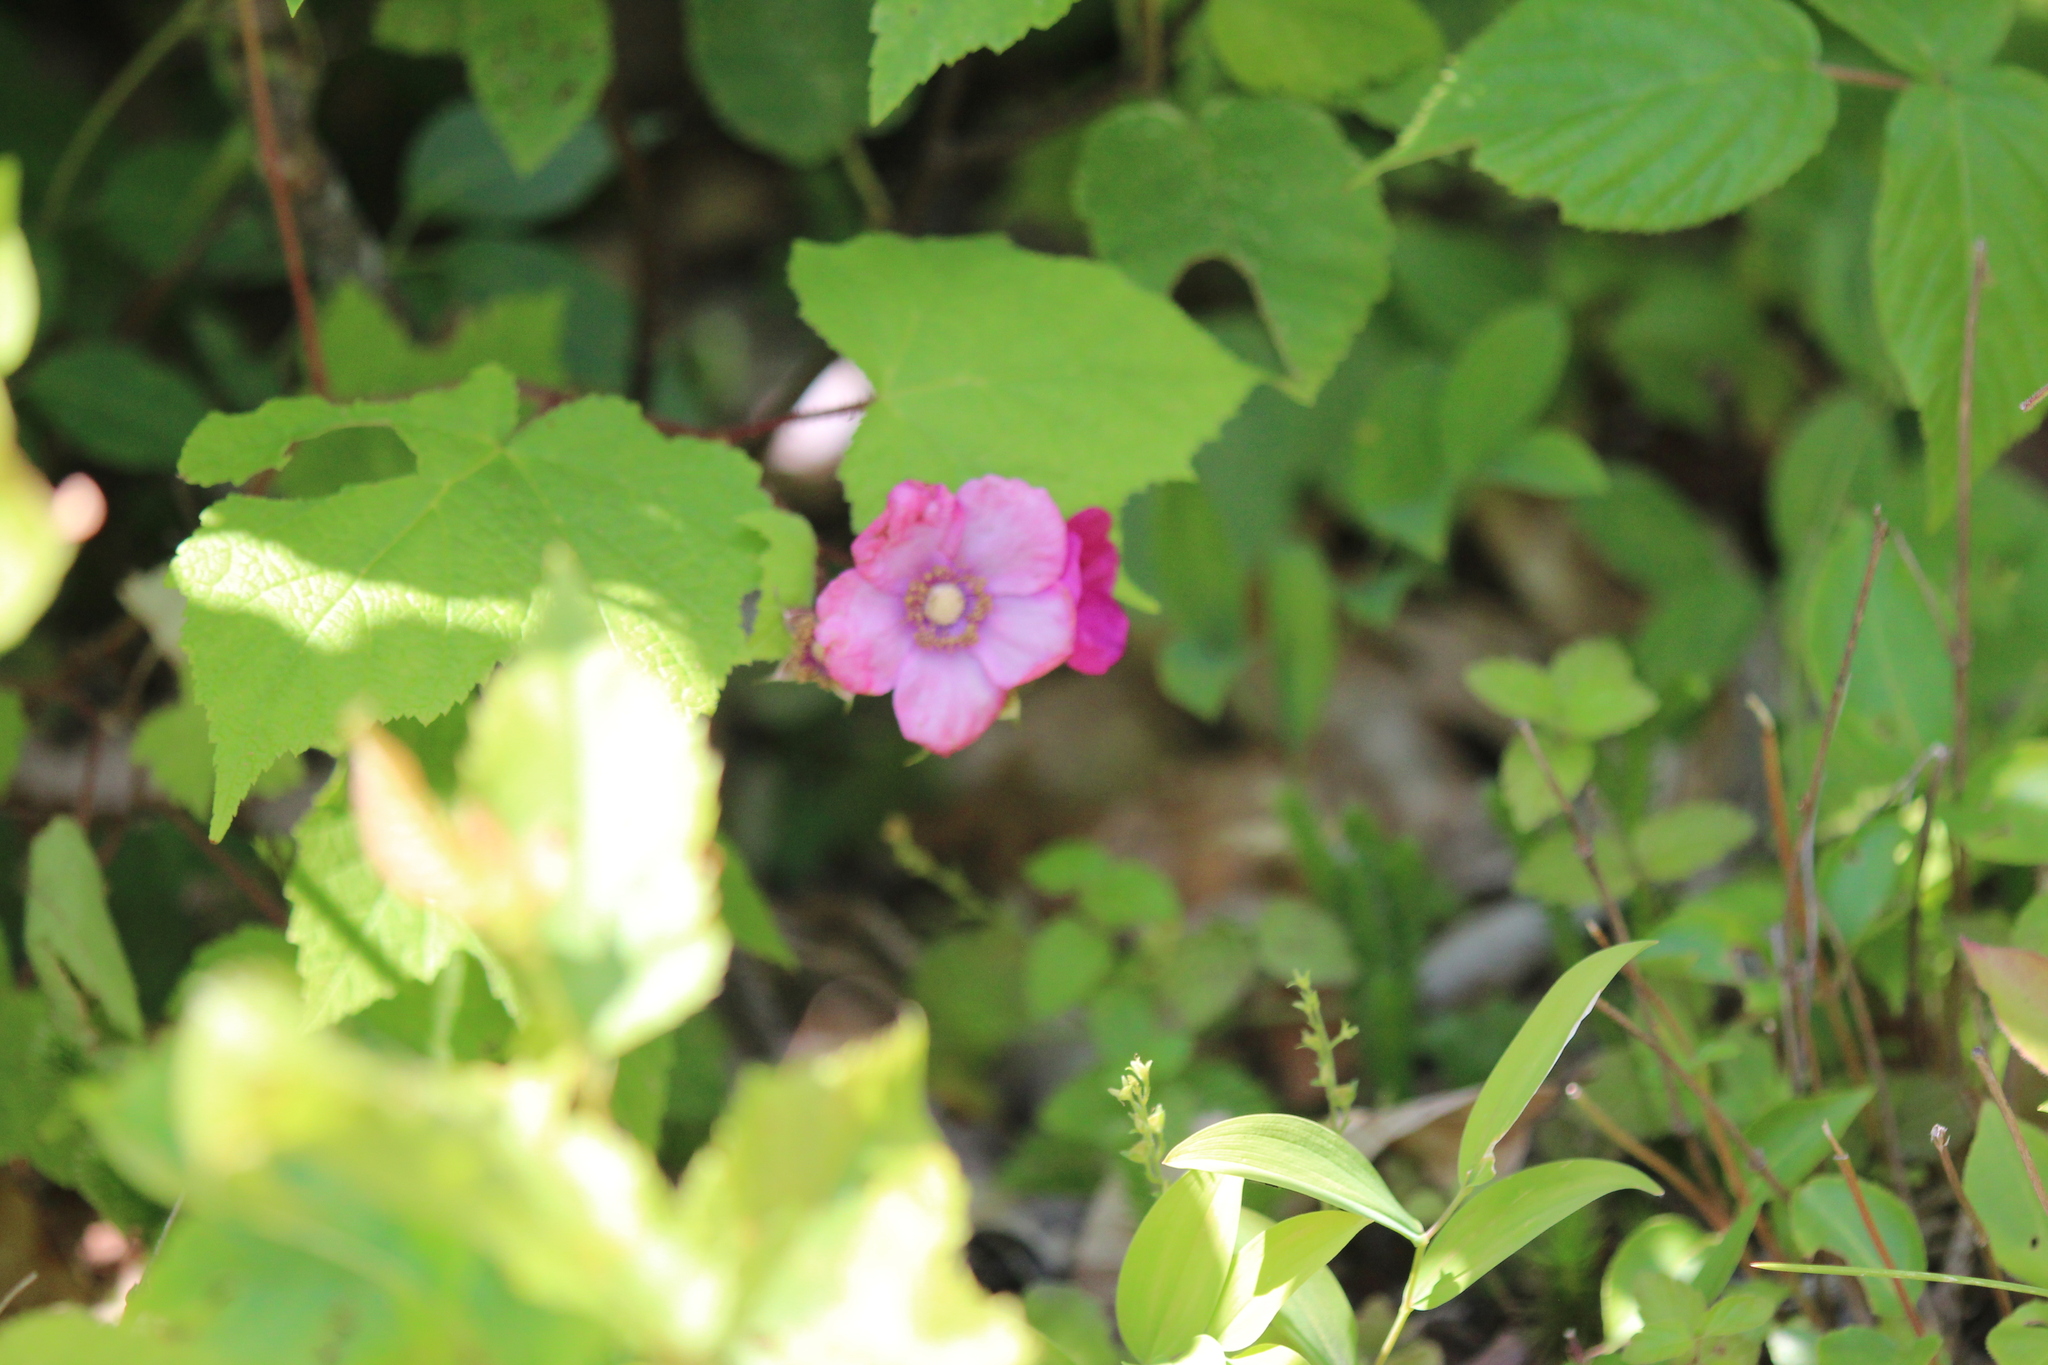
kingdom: Plantae
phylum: Tracheophyta
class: Magnoliopsida
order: Rosales
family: Rosaceae
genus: Rubus
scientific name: Rubus odoratus
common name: Purple-flowered raspberry
